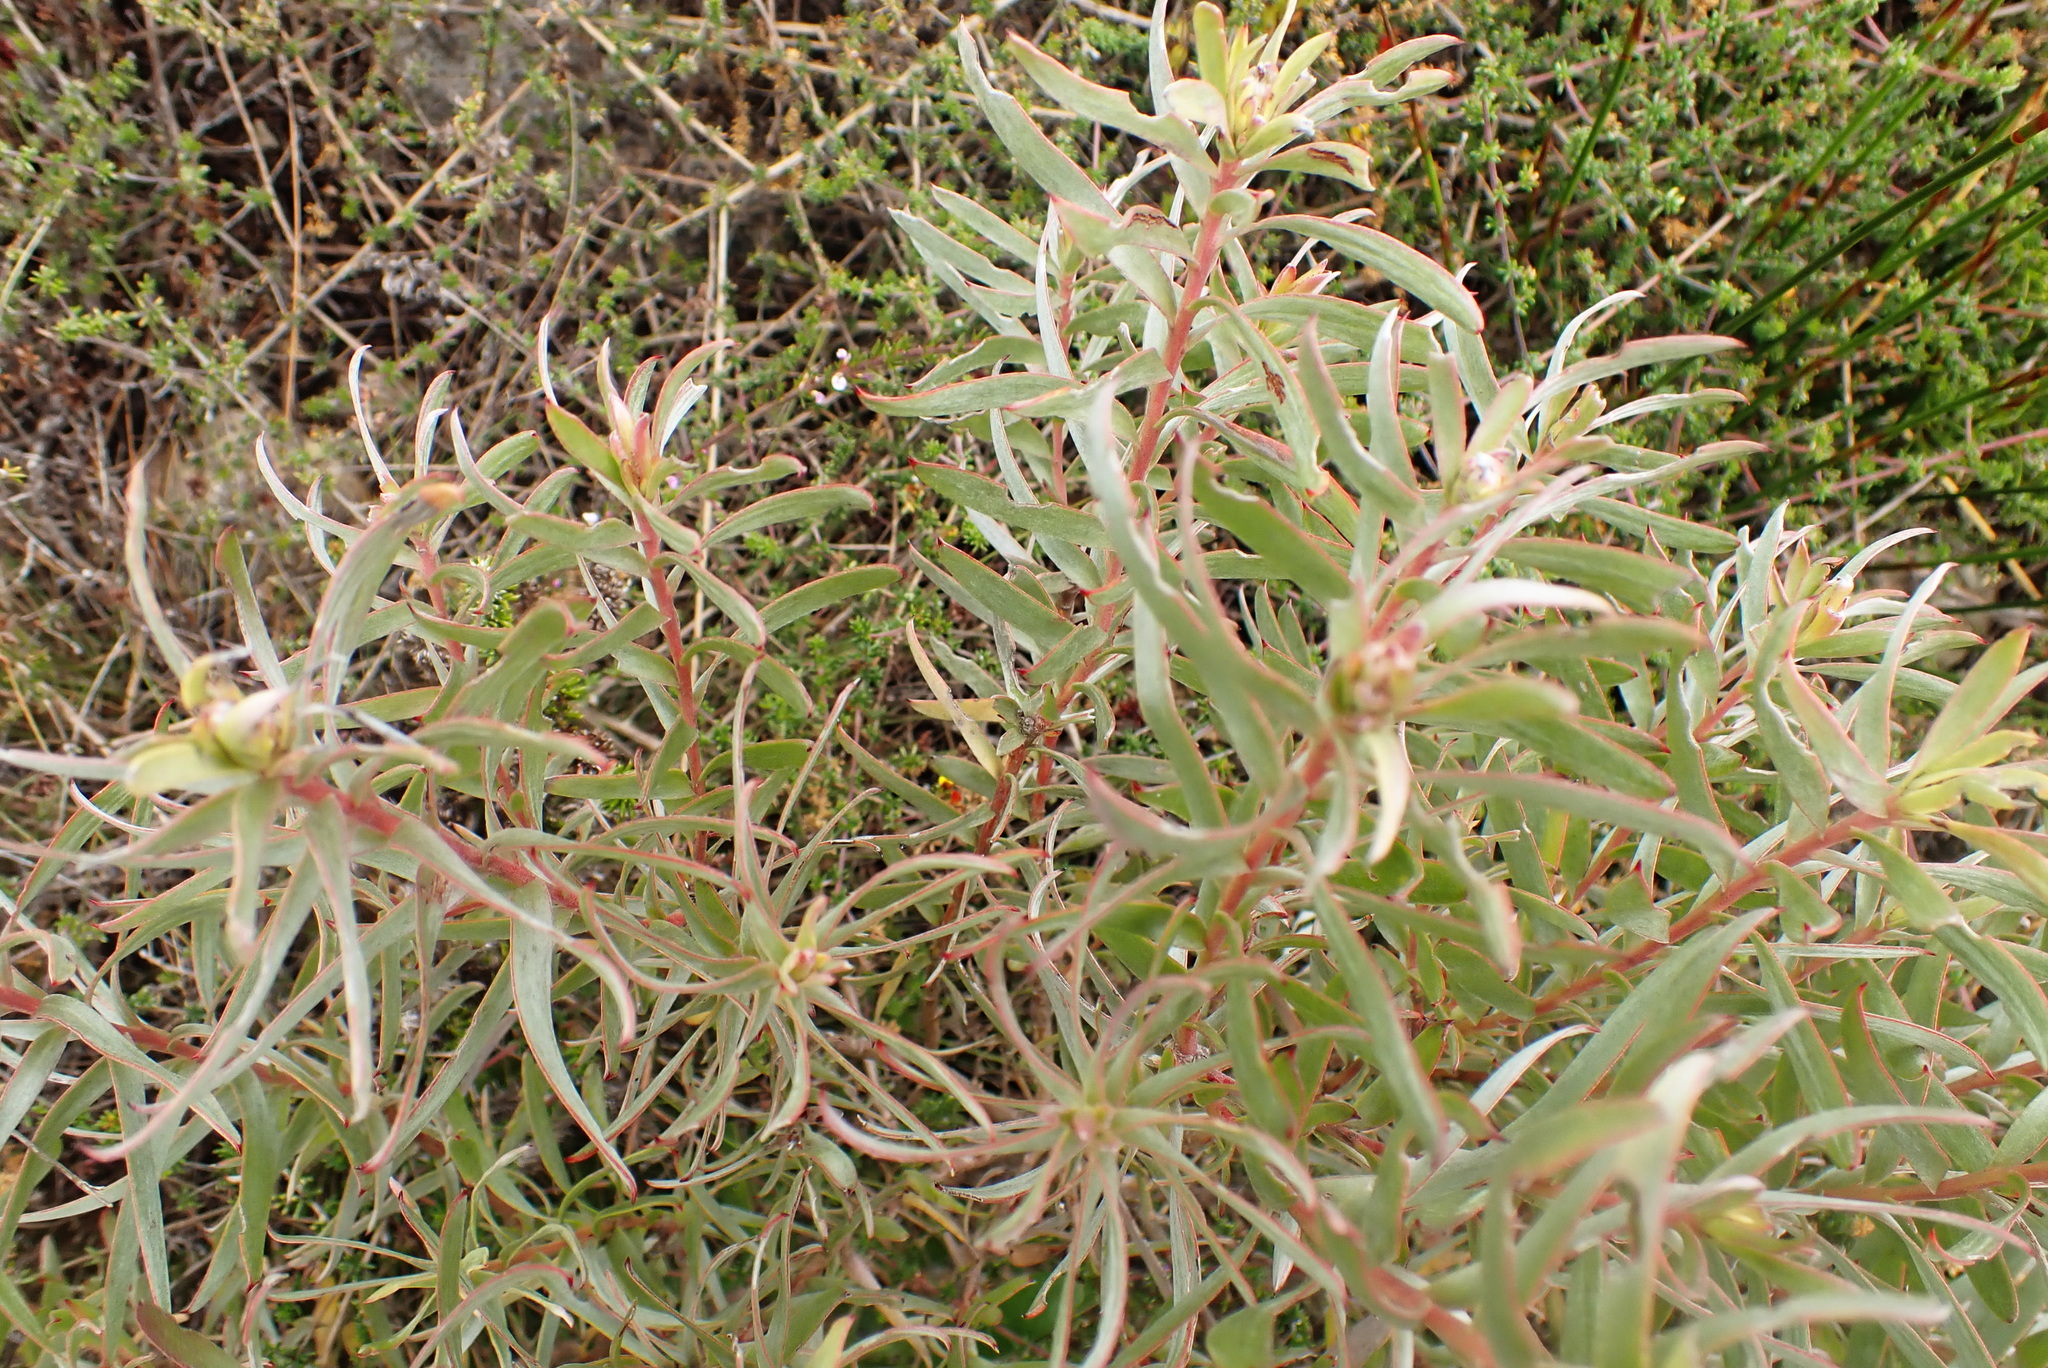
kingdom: Plantae
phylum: Tracheophyta
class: Magnoliopsida
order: Proteales
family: Proteaceae
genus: Leucadendron
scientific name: Leucadendron meridianum
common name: Limestone conebush
